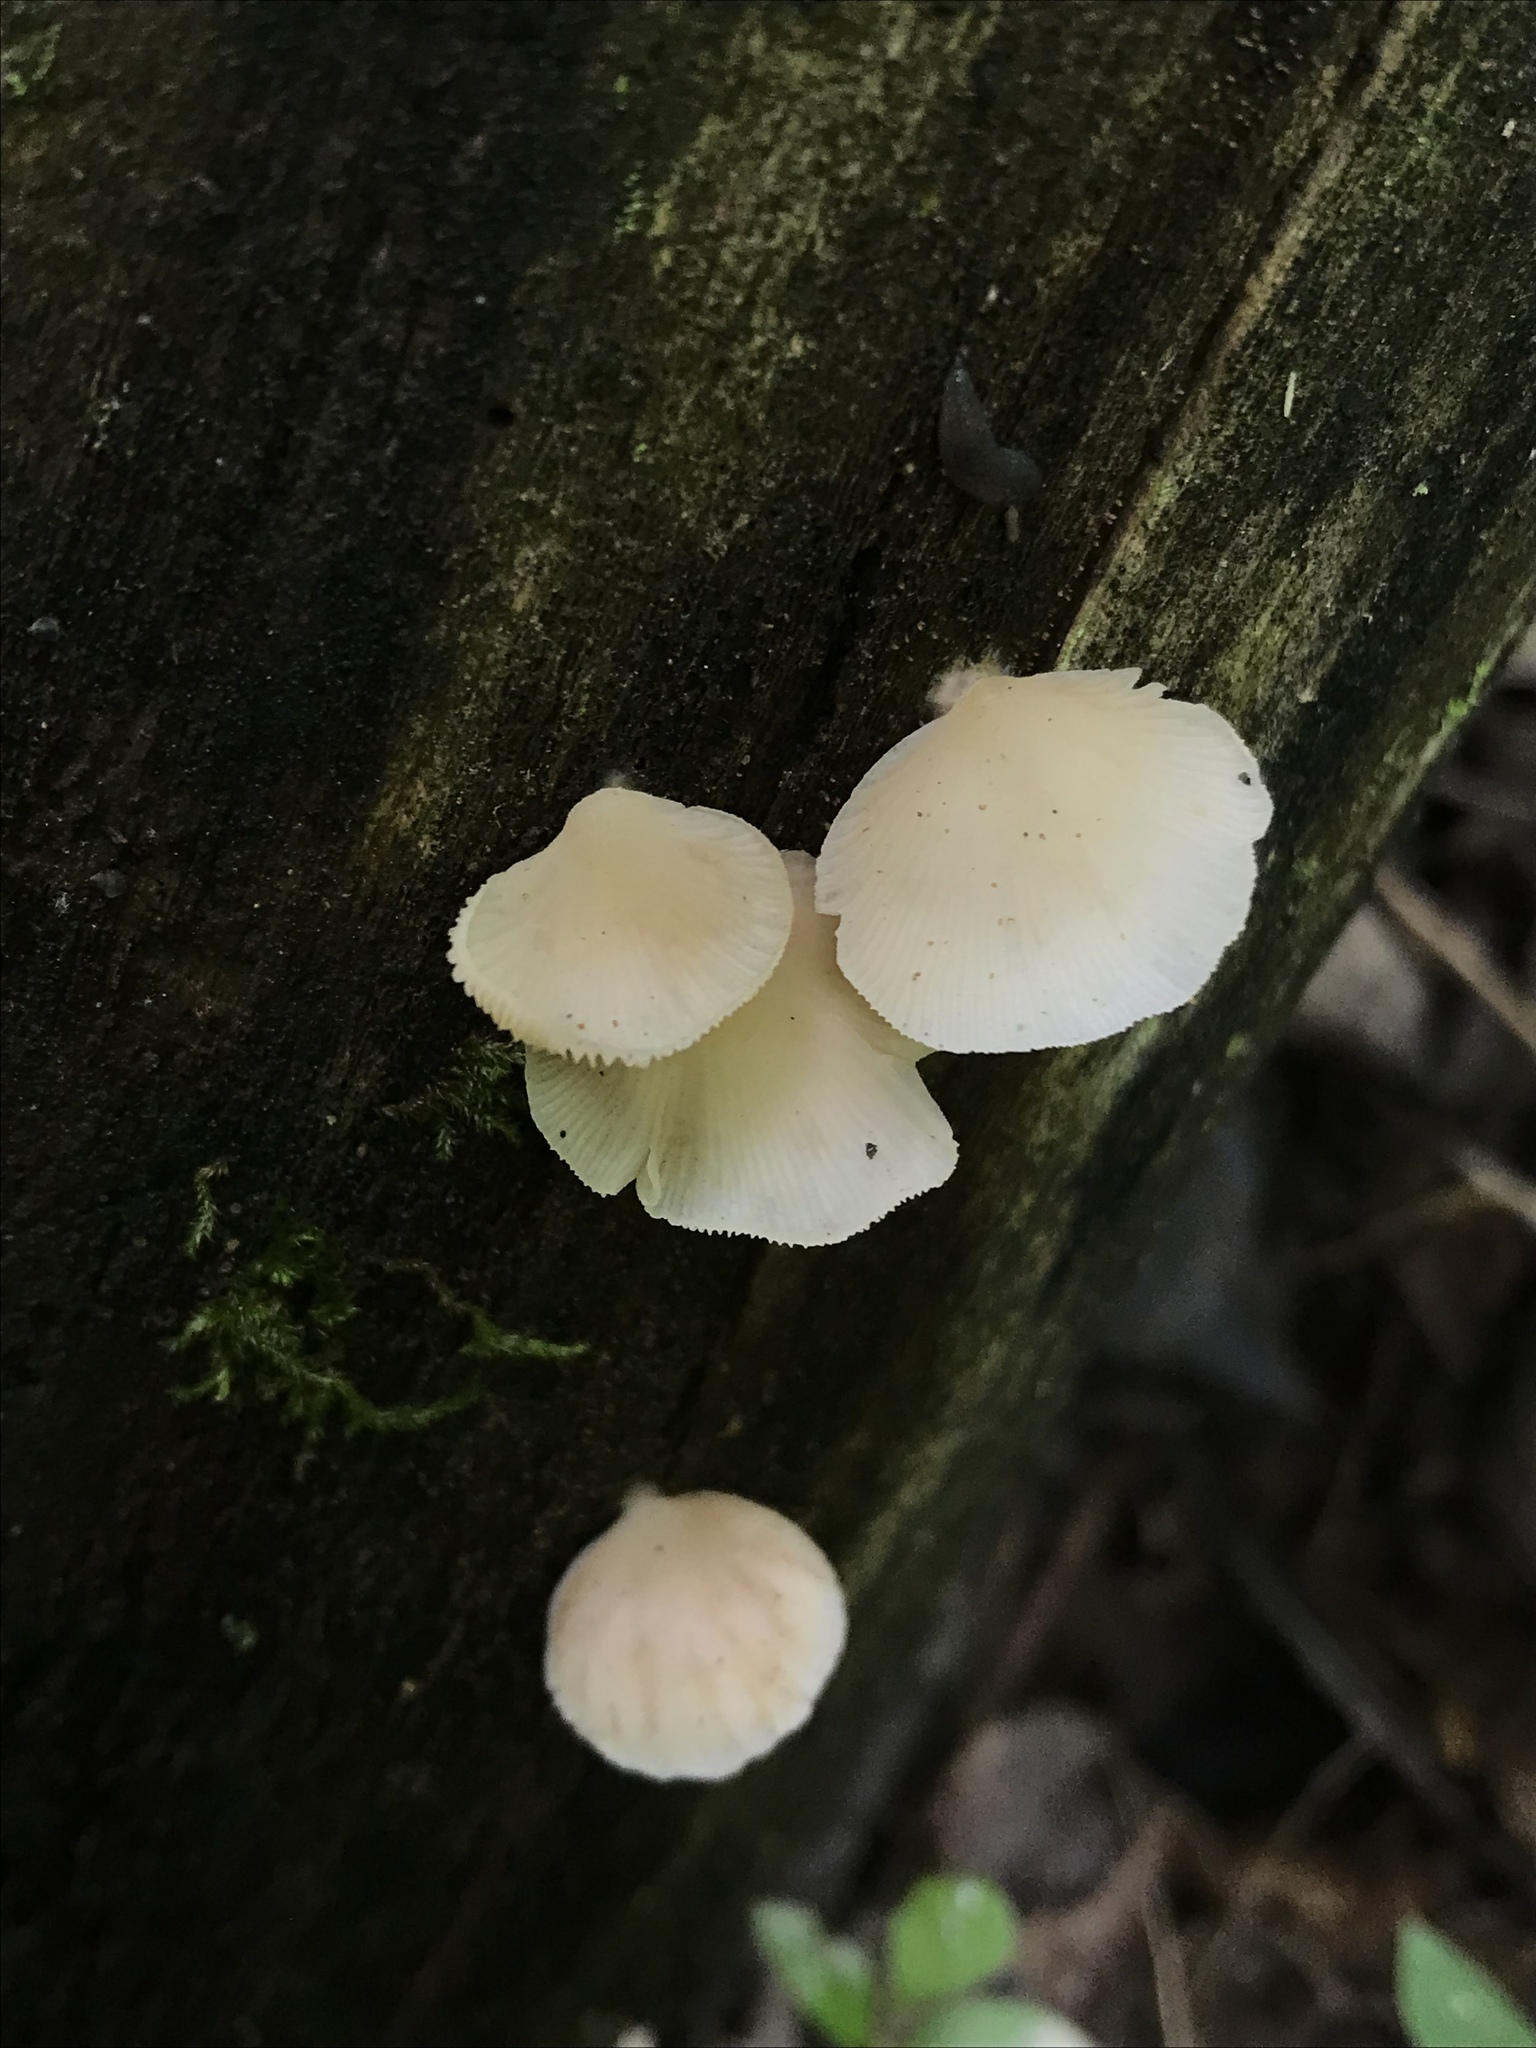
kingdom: Fungi
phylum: Basidiomycota
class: Agaricomycetes
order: Agaricales
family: Crepidotaceae
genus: Crepidotus
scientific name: Crepidotus applanatus
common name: Flat crep
